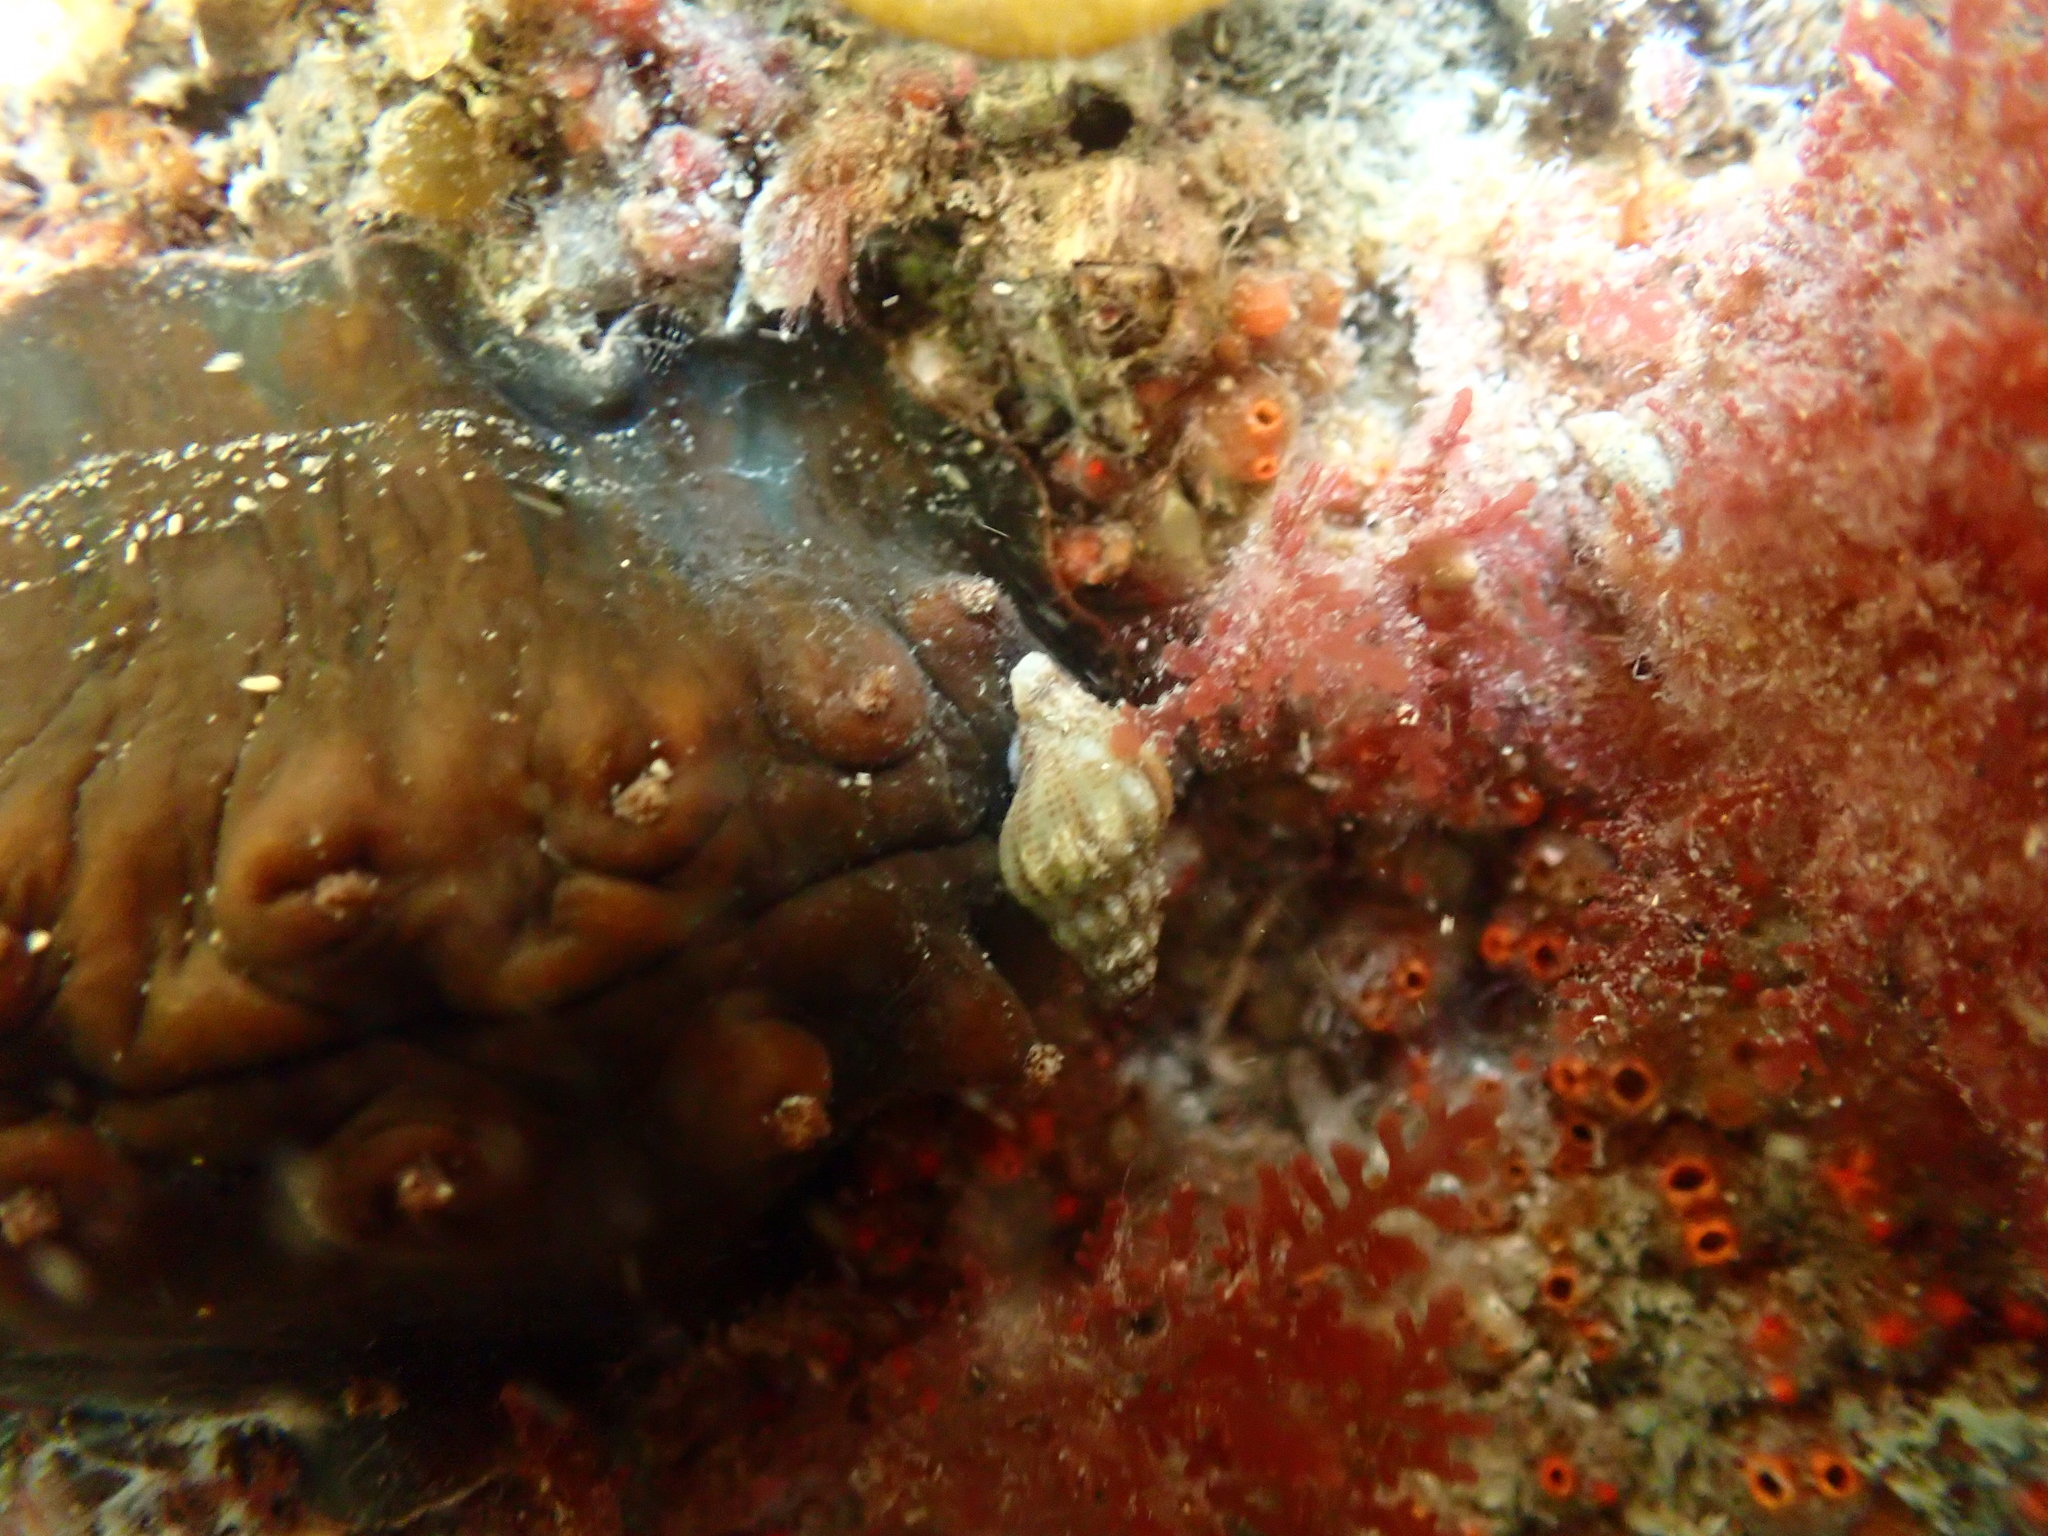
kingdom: Animalia
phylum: Mollusca
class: Gastropoda
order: Neogastropoda
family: Tudiclidae
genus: Buccinulum
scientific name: Buccinulum vittatum
